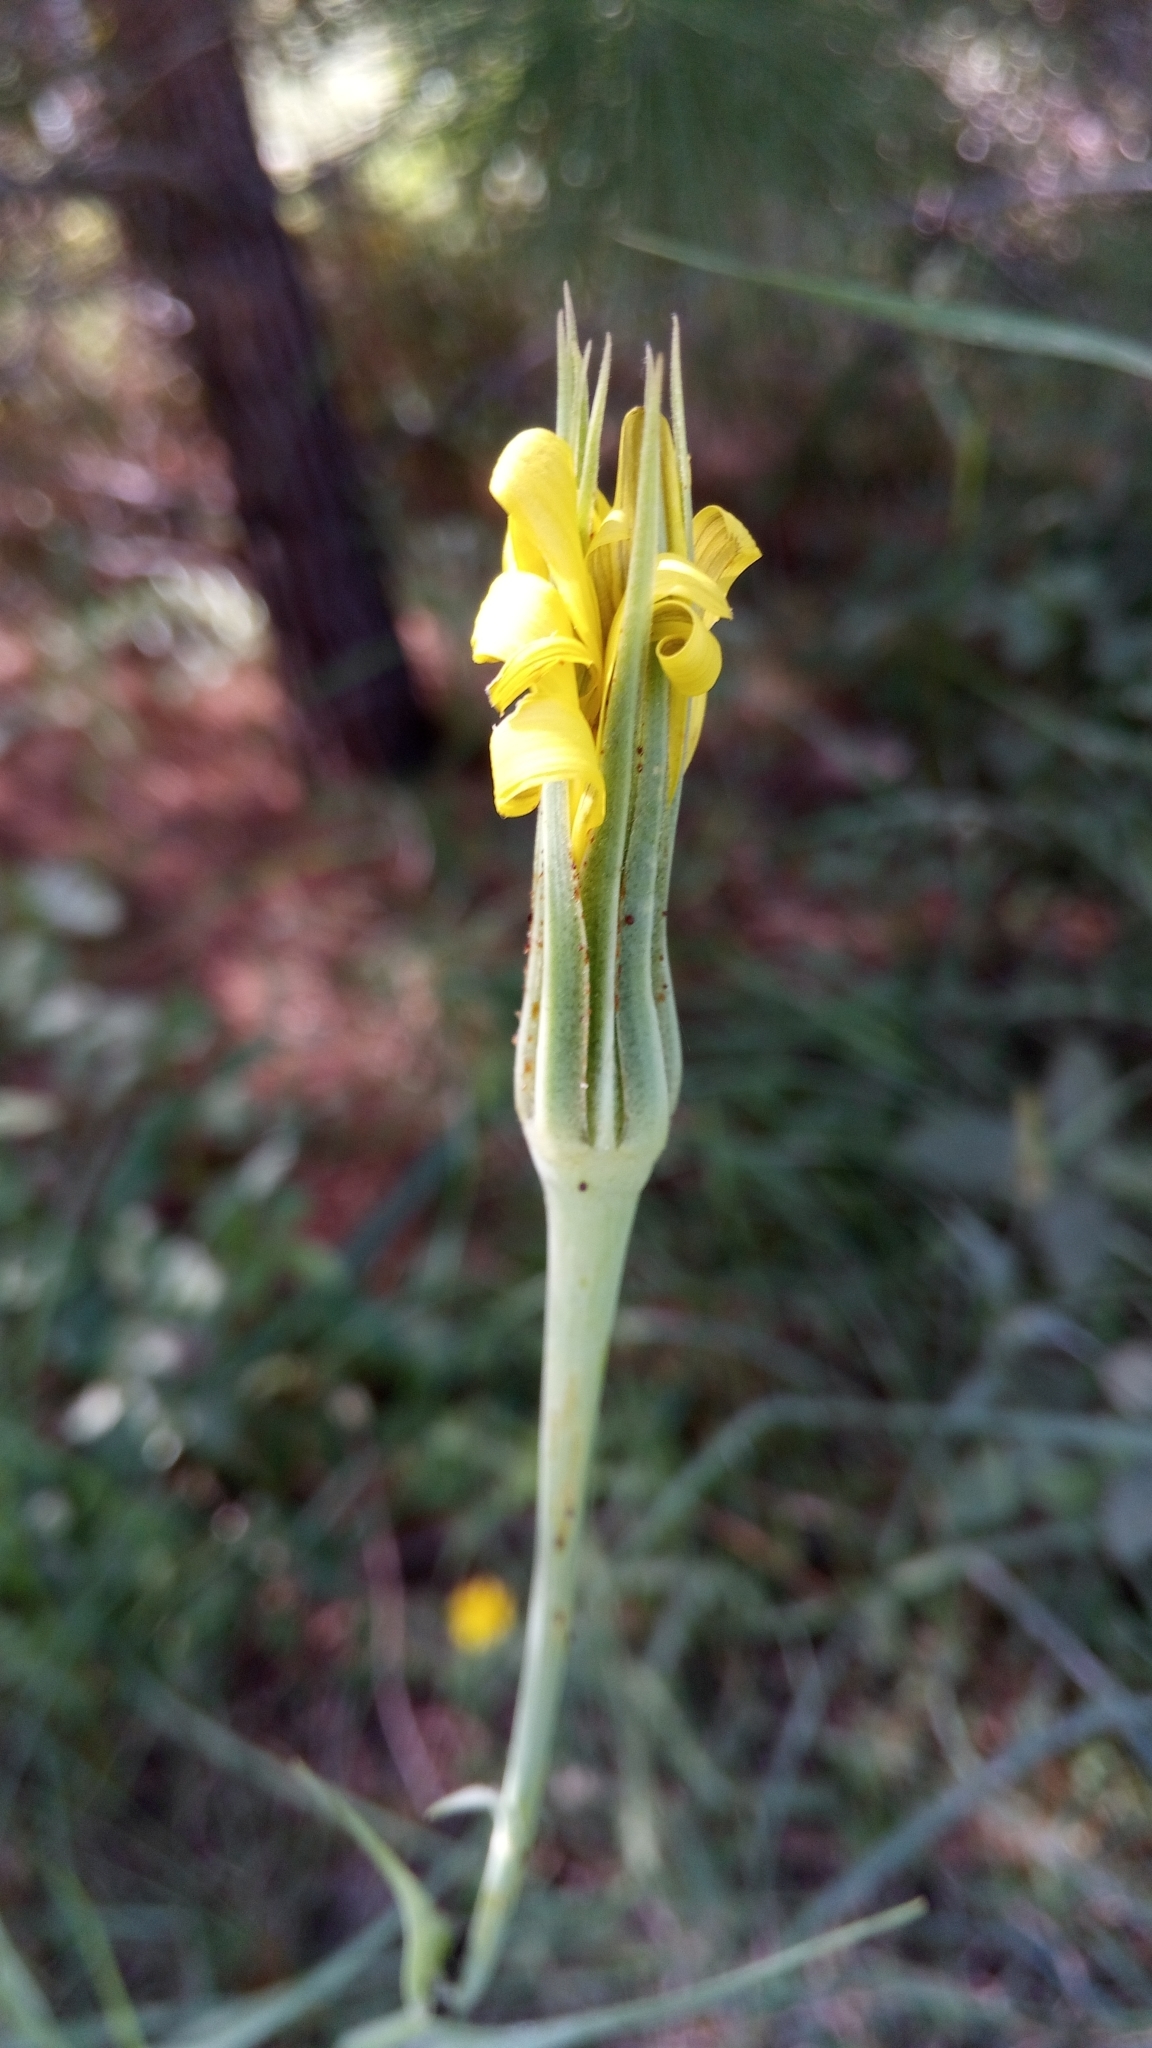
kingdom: Plantae
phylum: Tracheophyta
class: Magnoliopsida
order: Asterales
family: Asteraceae
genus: Tragopogon
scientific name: Tragopogon dubius
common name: Yellow salsify
